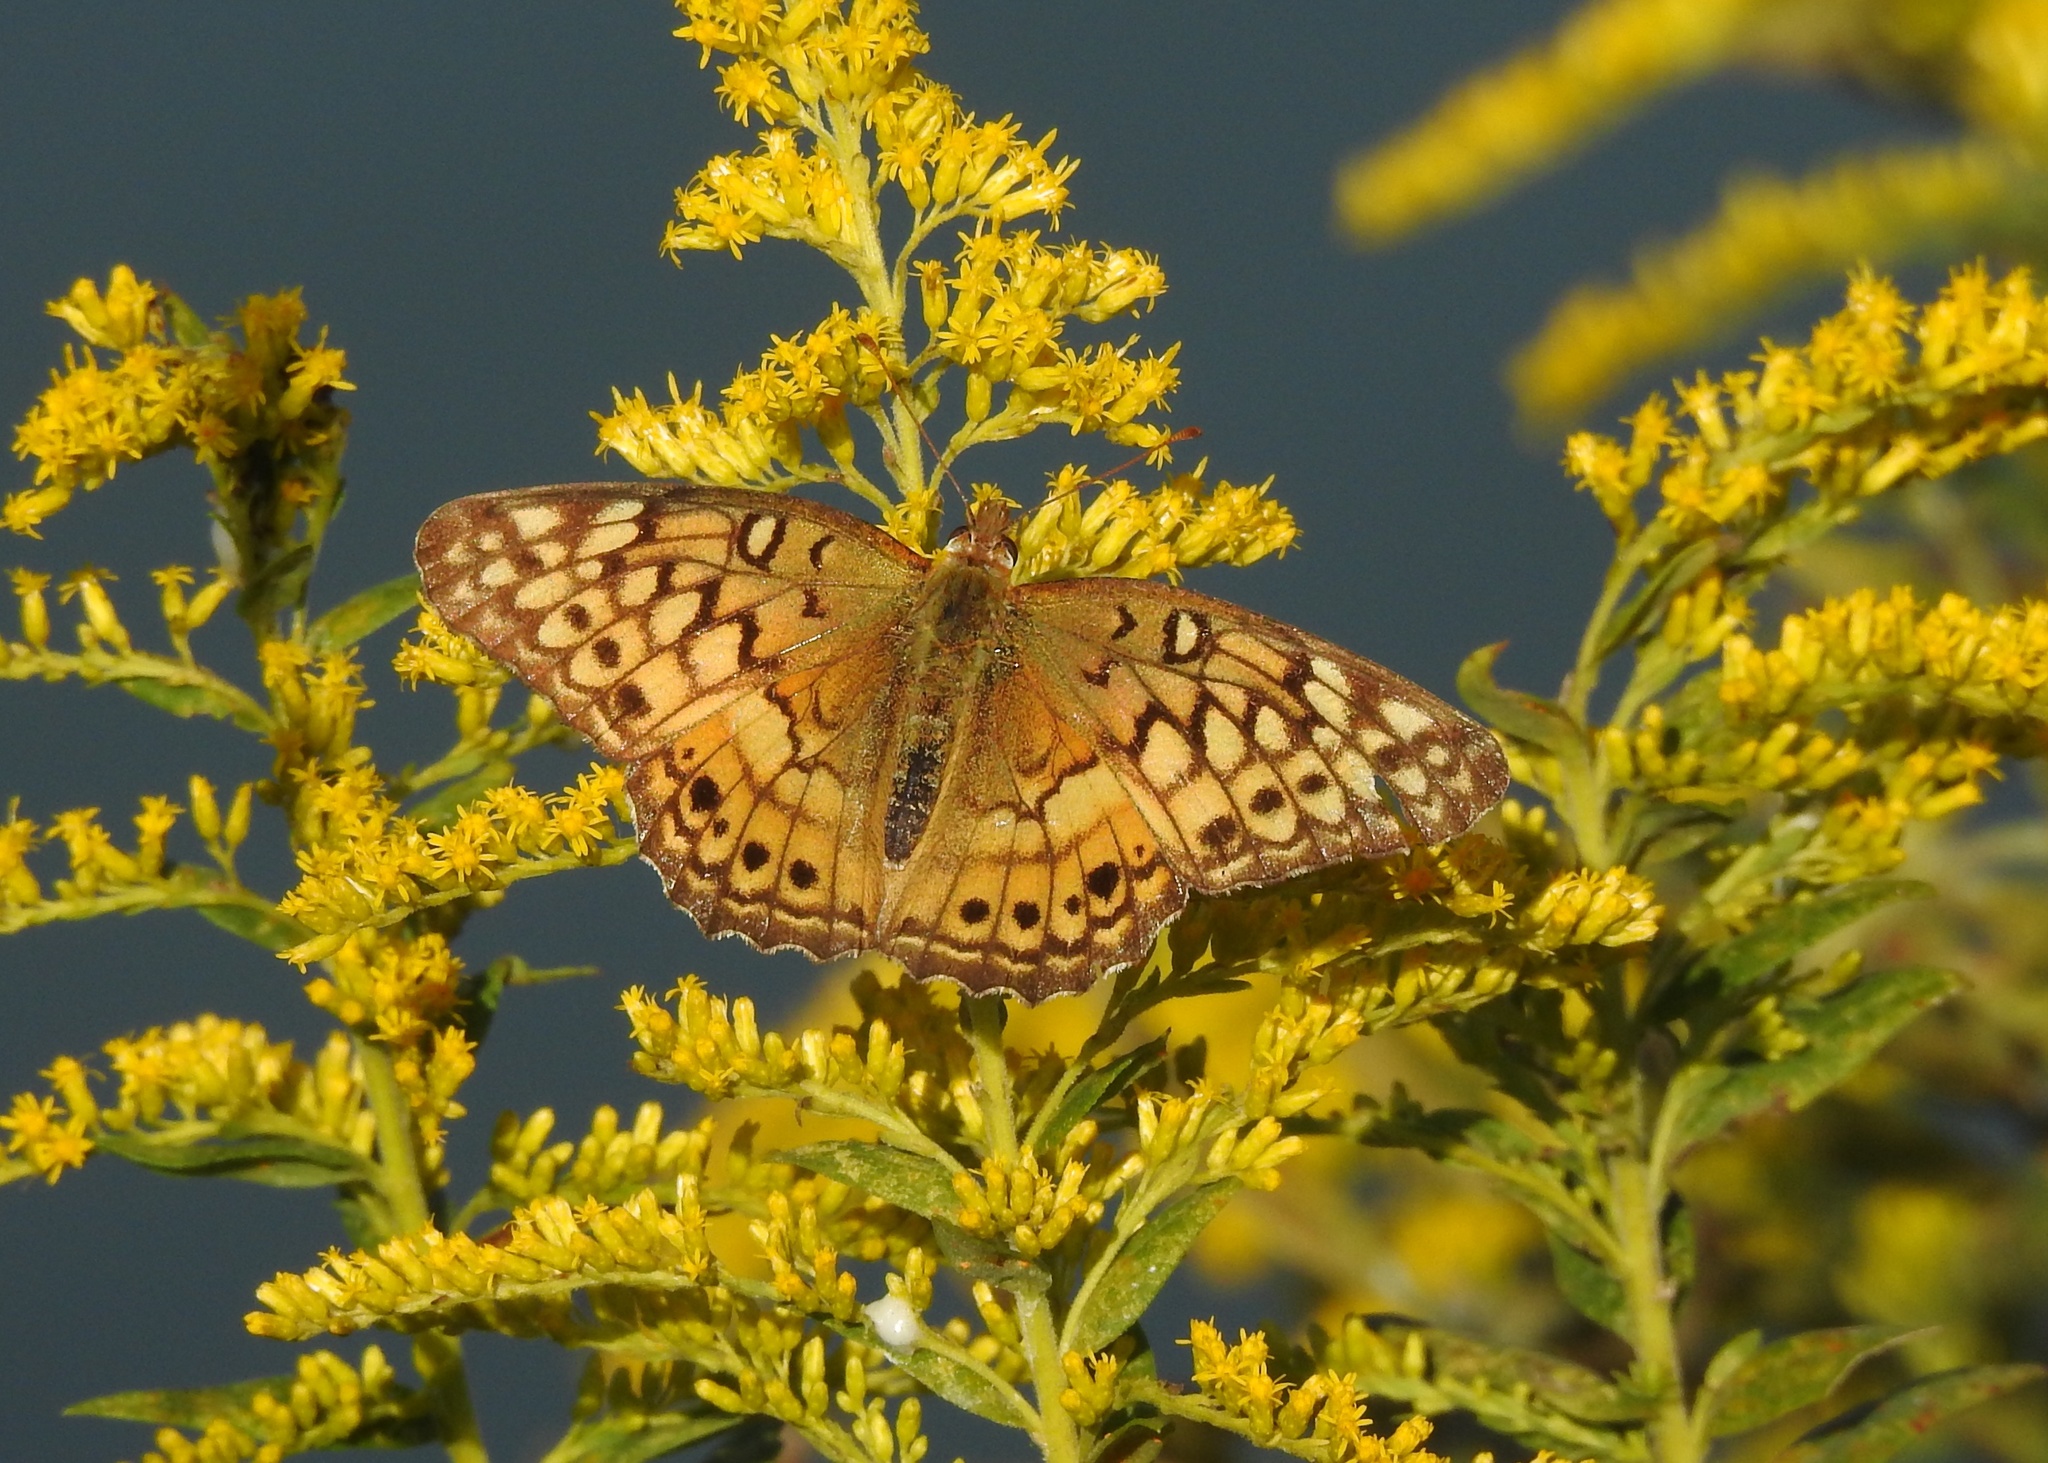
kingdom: Animalia
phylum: Arthropoda
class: Insecta
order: Lepidoptera
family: Nymphalidae
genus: Euptoieta
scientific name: Euptoieta claudia
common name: Variegated fritillary
